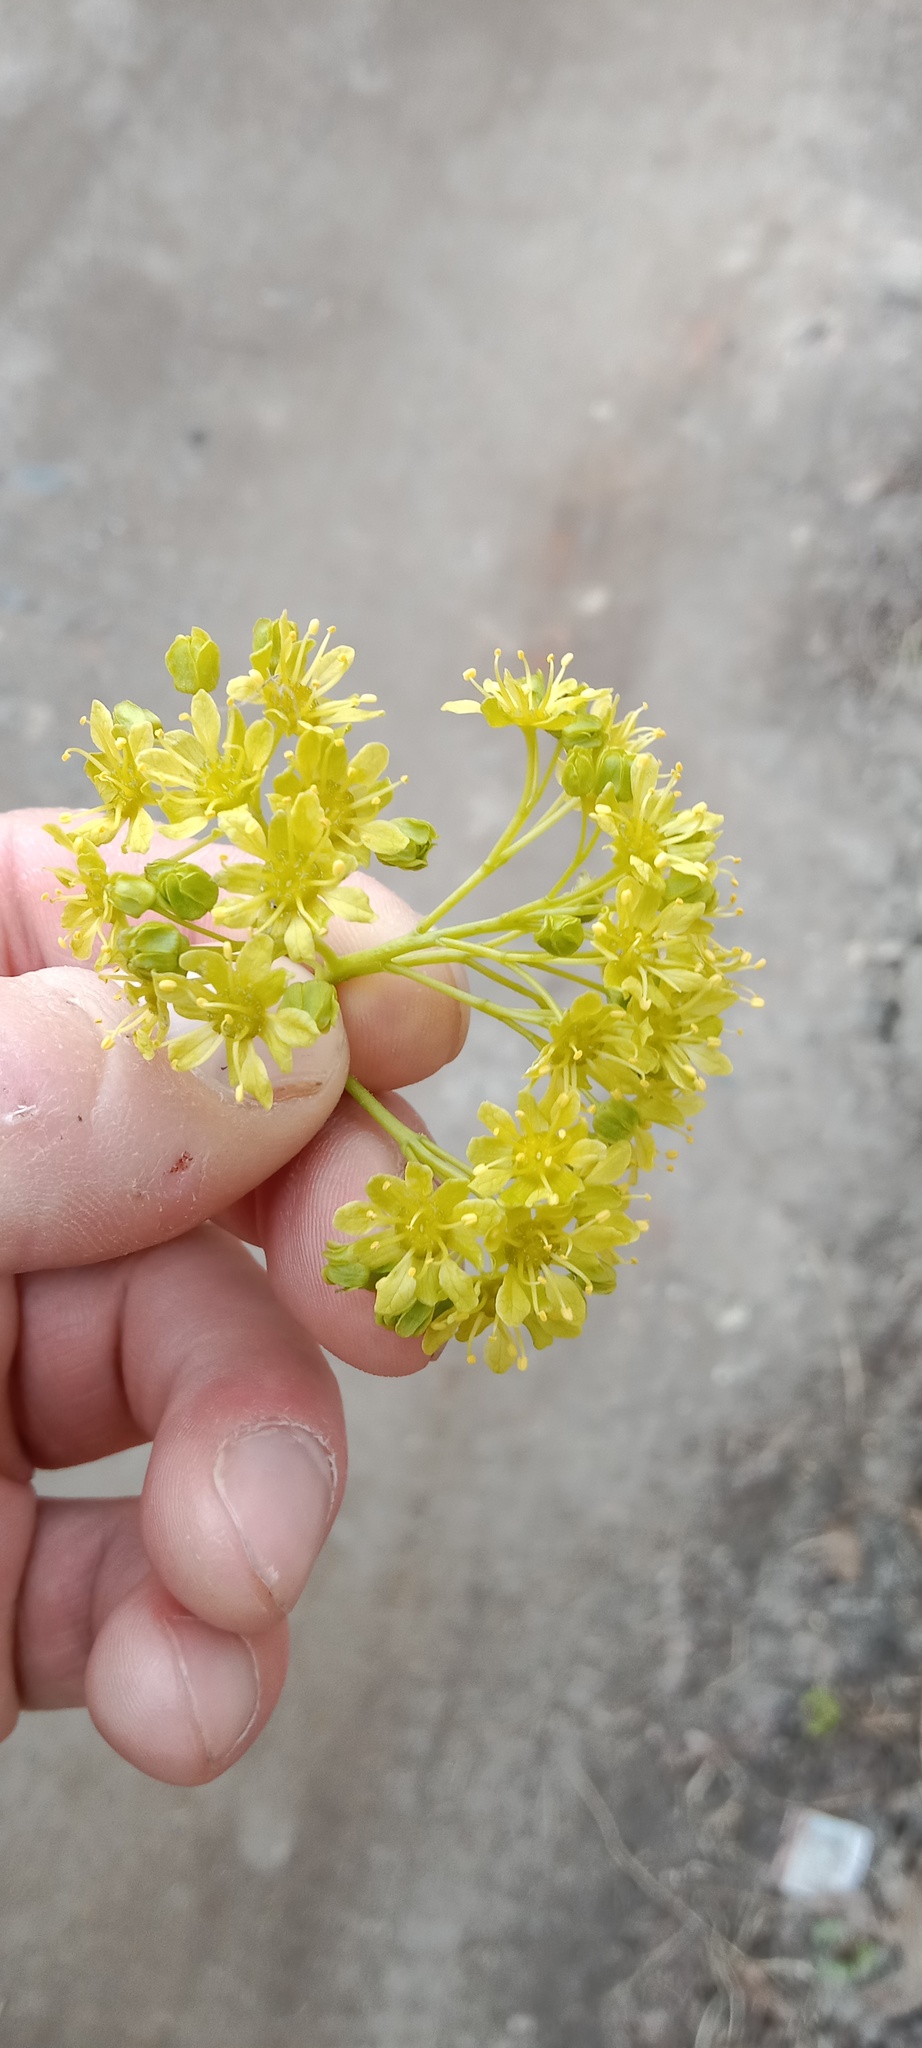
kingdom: Plantae
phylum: Tracheophyta
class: Magnoliopsida
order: Sapindales
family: Sapindaceae
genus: Acer
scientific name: Acer platanoides
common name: Norway maple
